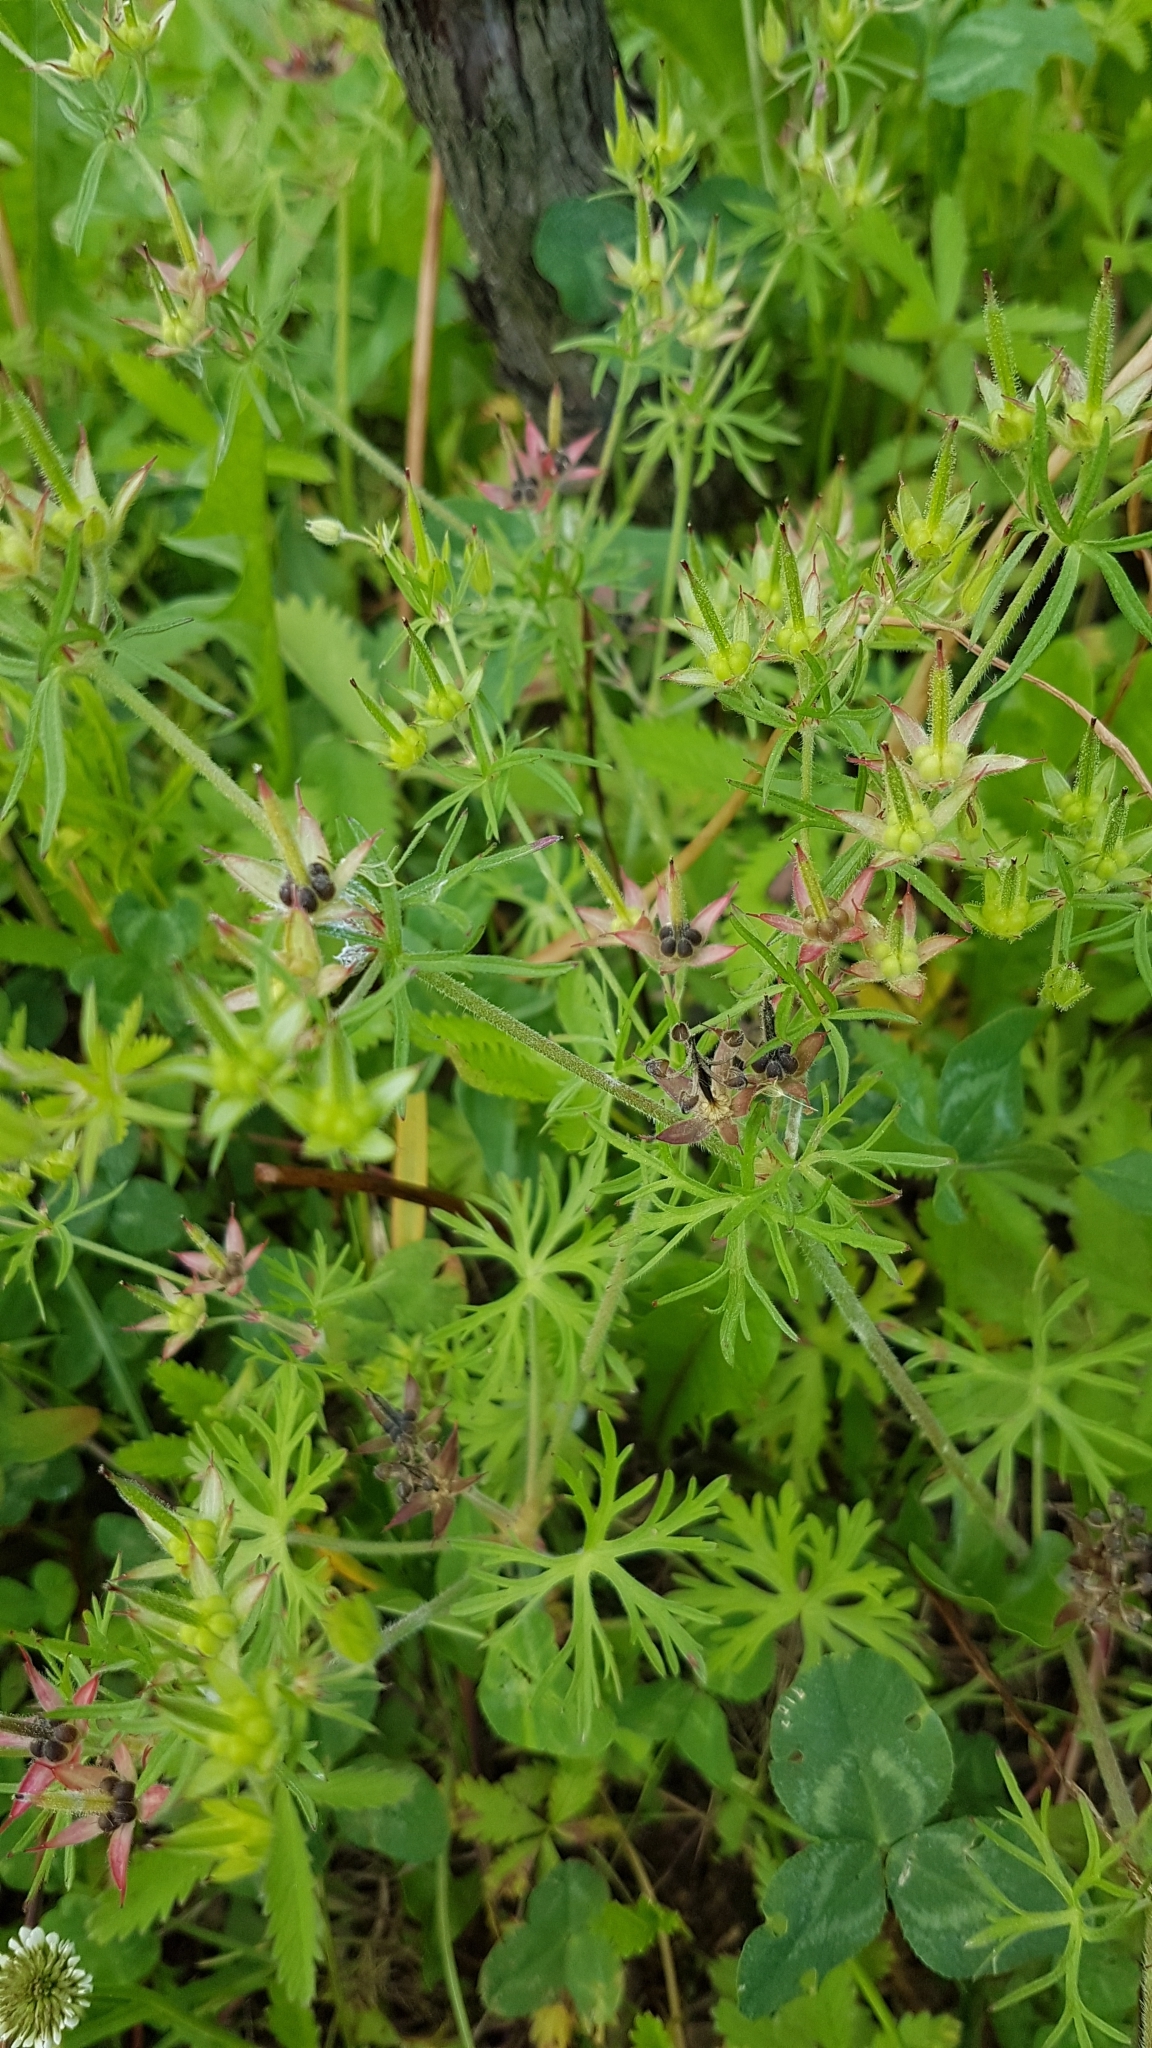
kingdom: Plantae
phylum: Tracheophyta
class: Magnoliopsida
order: Geraniales
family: Geraniaceae
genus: Geranium
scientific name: Geranium dissectum
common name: Cut-leaved crane's-bill
